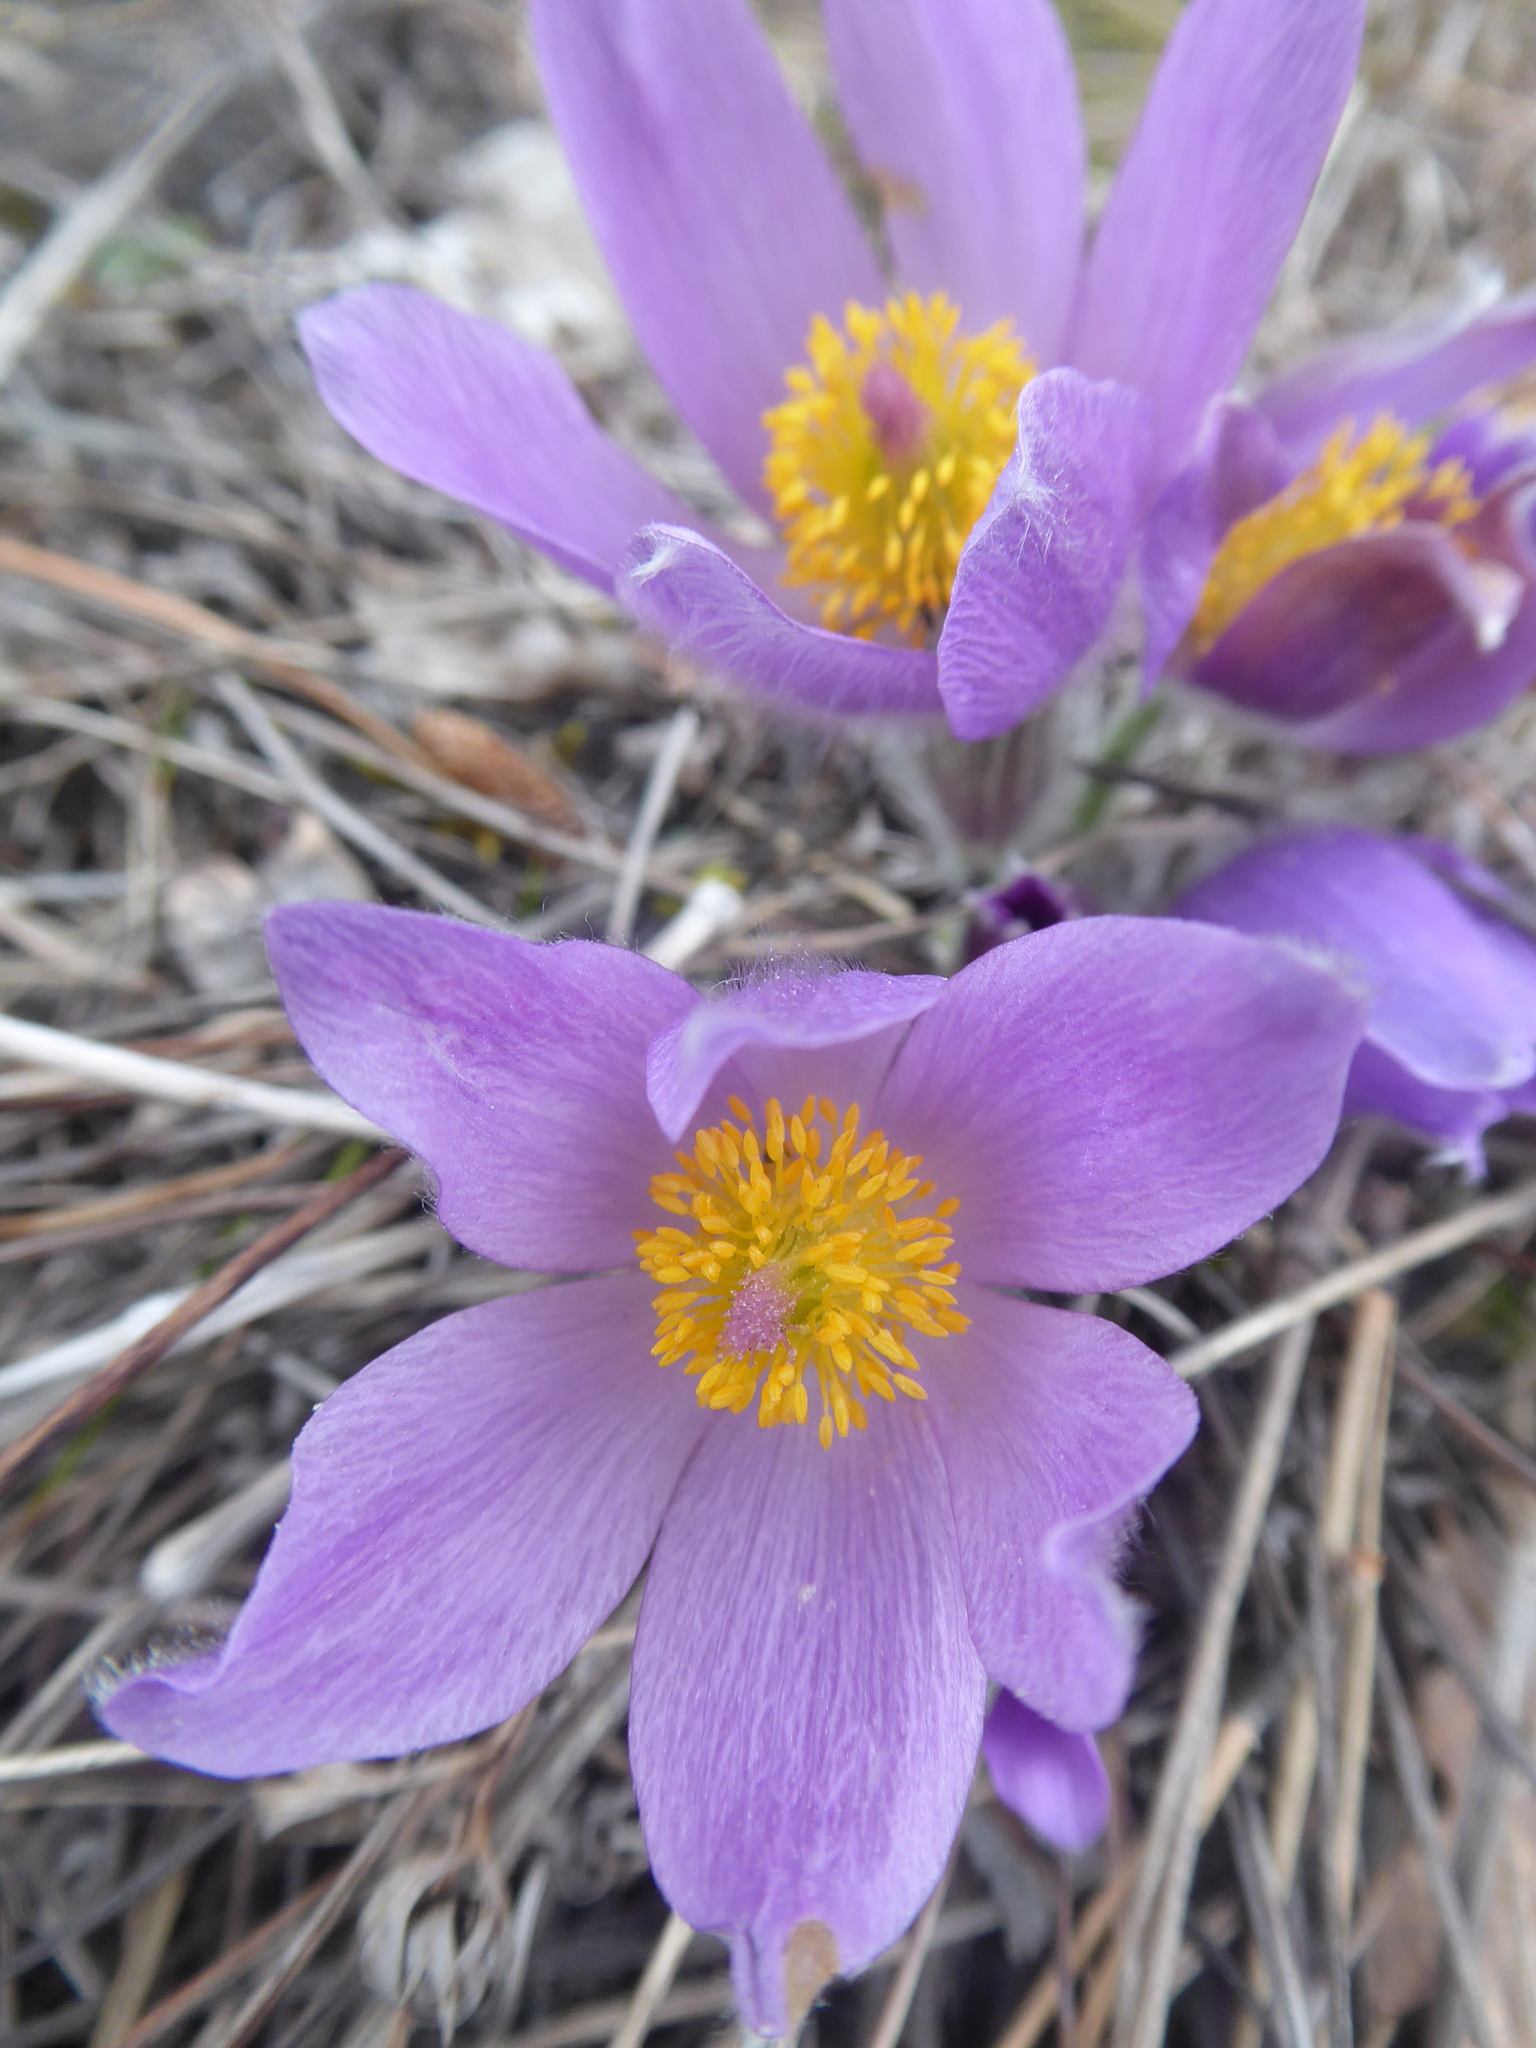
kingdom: Plantae
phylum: Tracheophyta
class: Magnoliopsida
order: Ranunculales
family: Ranunculaceae
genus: Pulsatilla
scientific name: Pulsatilla grandis
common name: Greater pasque flower
